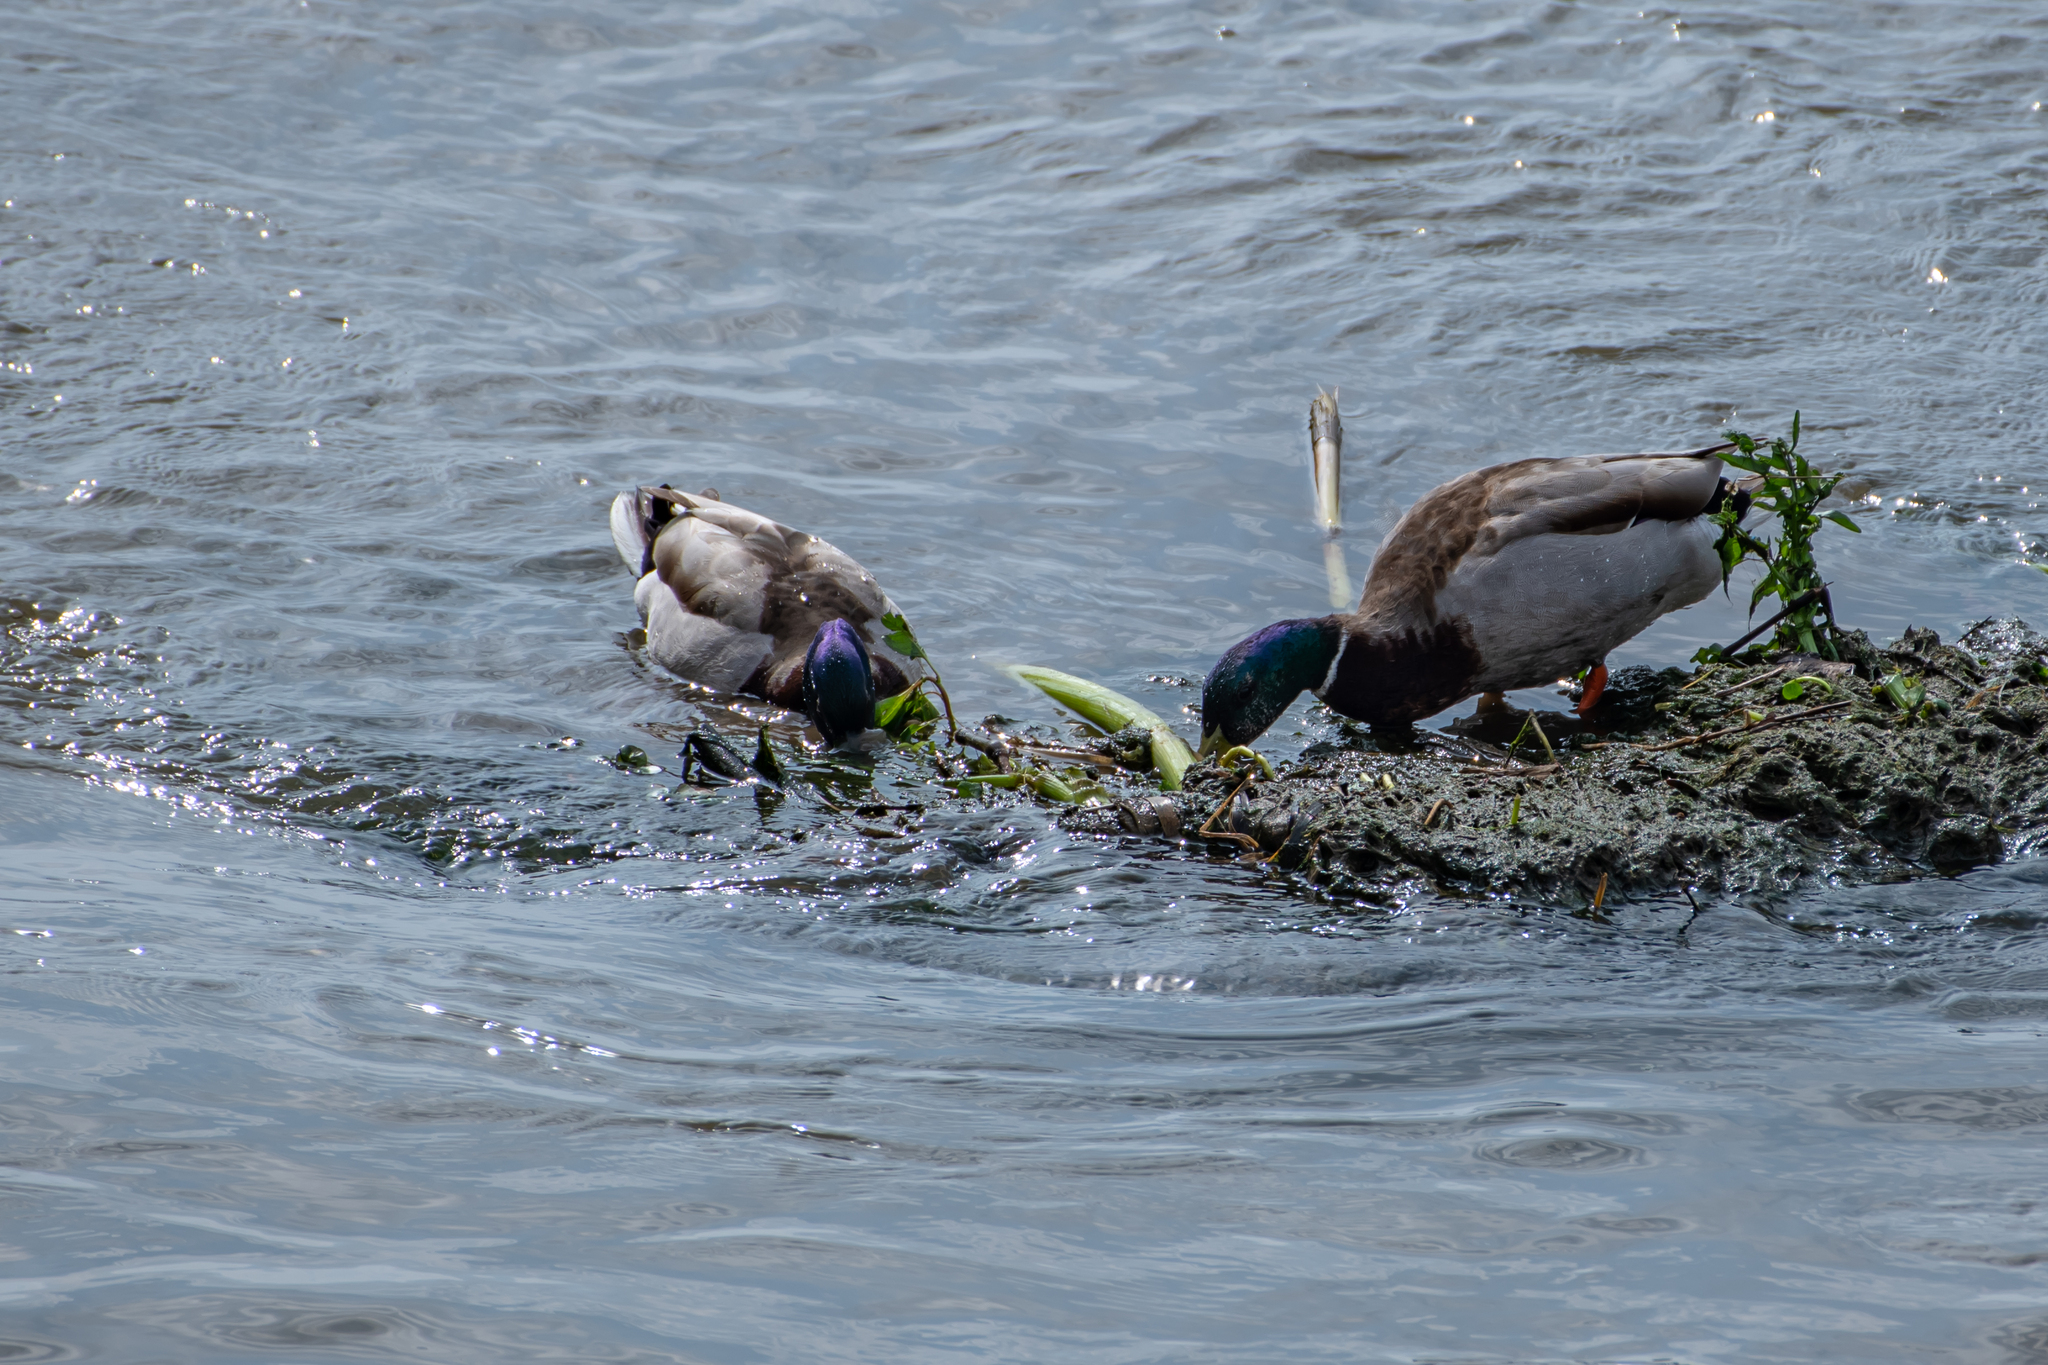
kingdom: Animalia
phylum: Chordata
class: Aves
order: Anseriformes
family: Anatidae
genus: Anas
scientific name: Anas platyrhynchos
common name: Mallard
